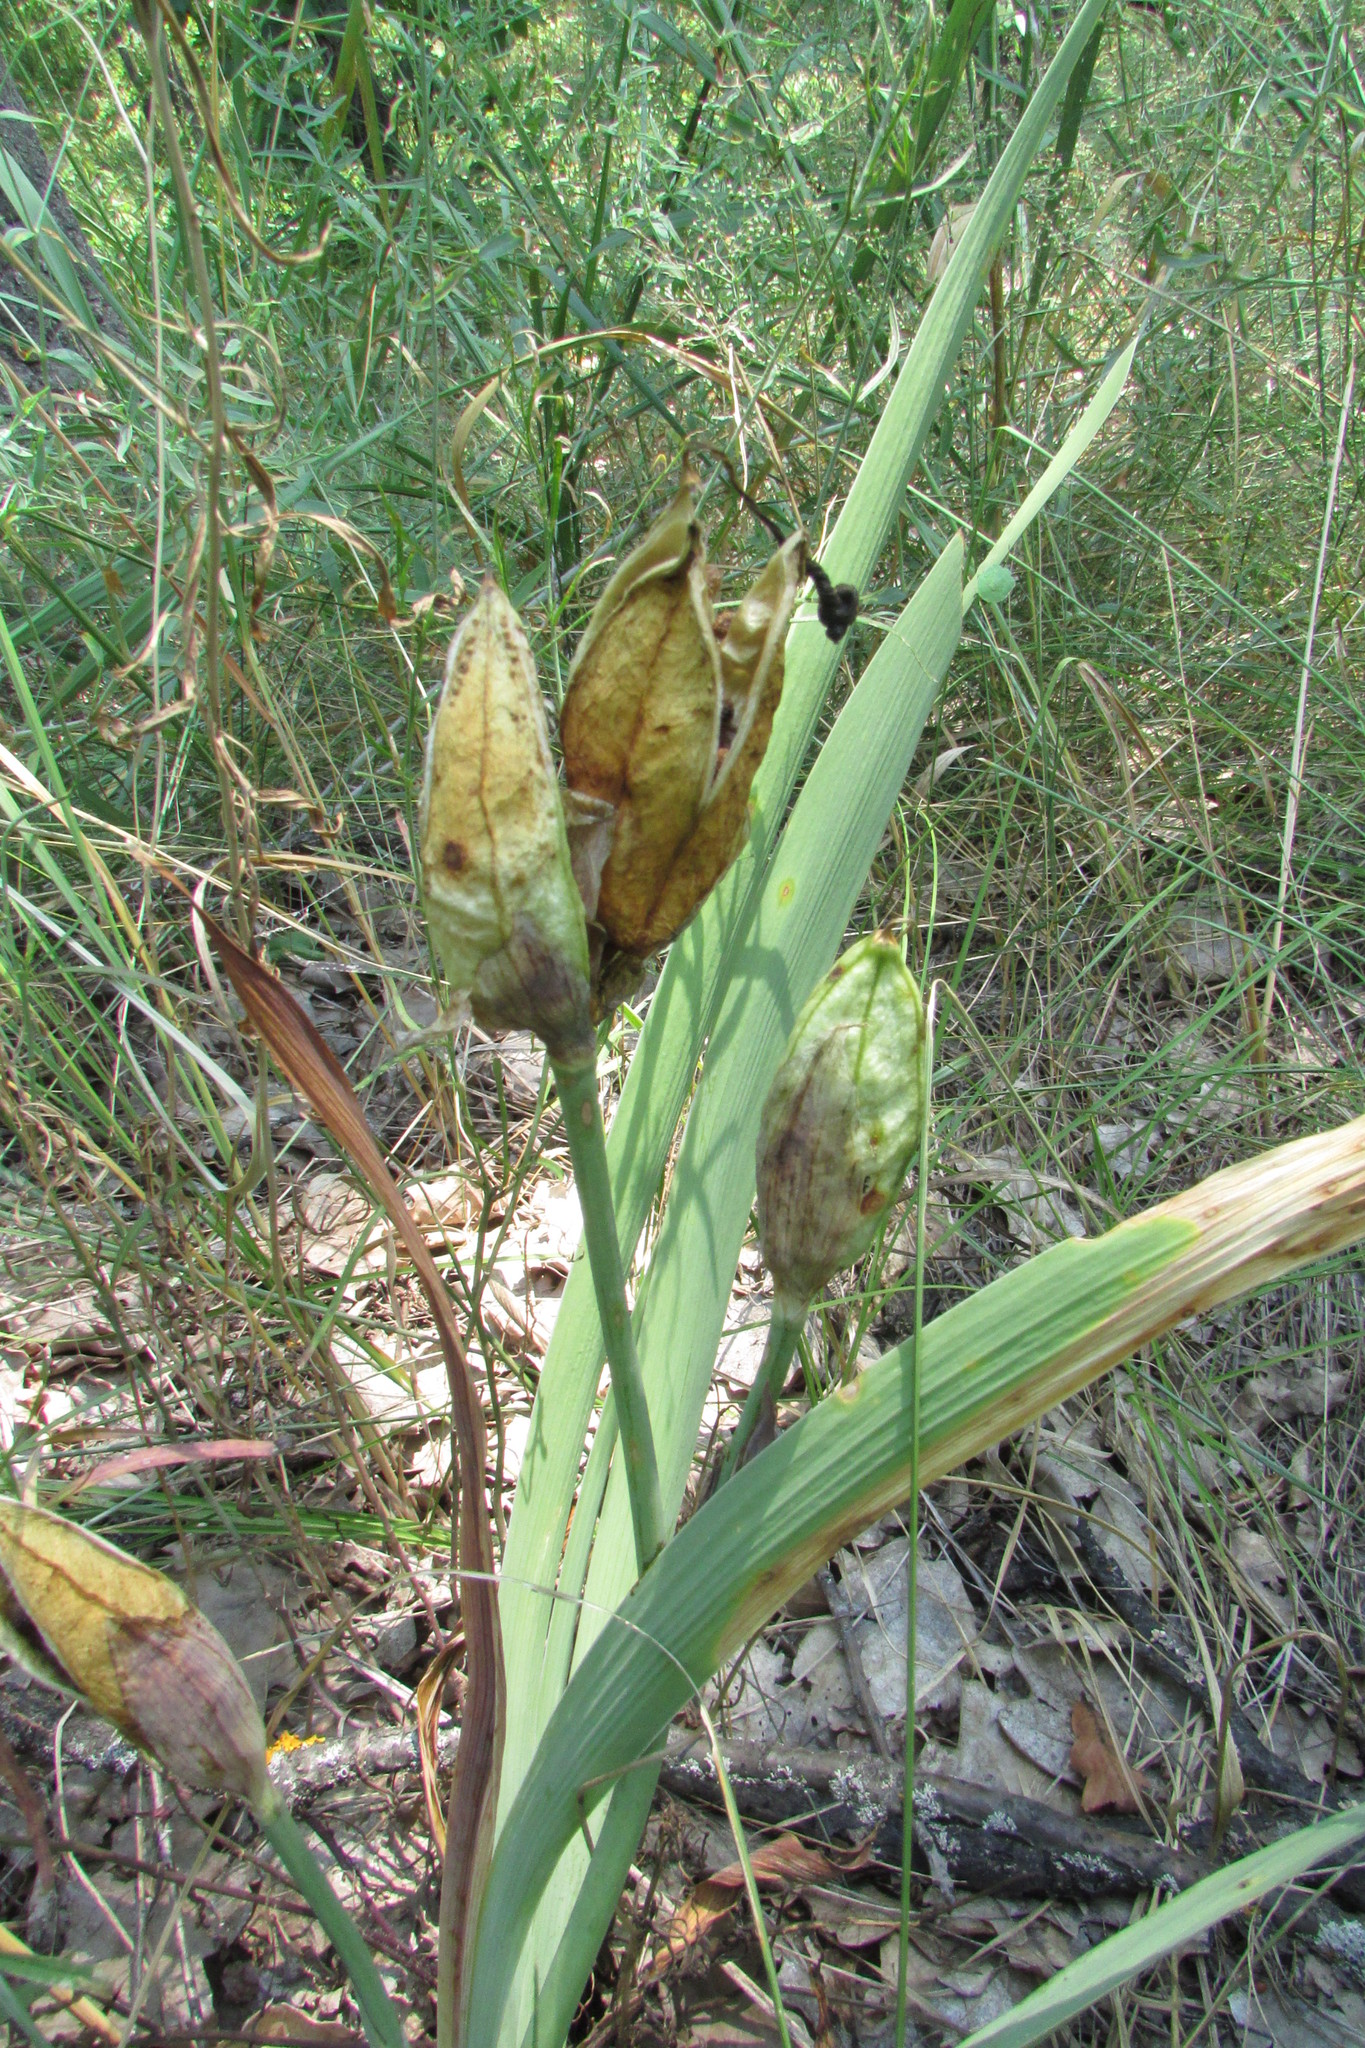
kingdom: Plantae
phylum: Tracheophyta
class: Liliopsida
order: Asparagales
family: Iridaceae
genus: Iris
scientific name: Iris aphylla
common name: Stool iris
